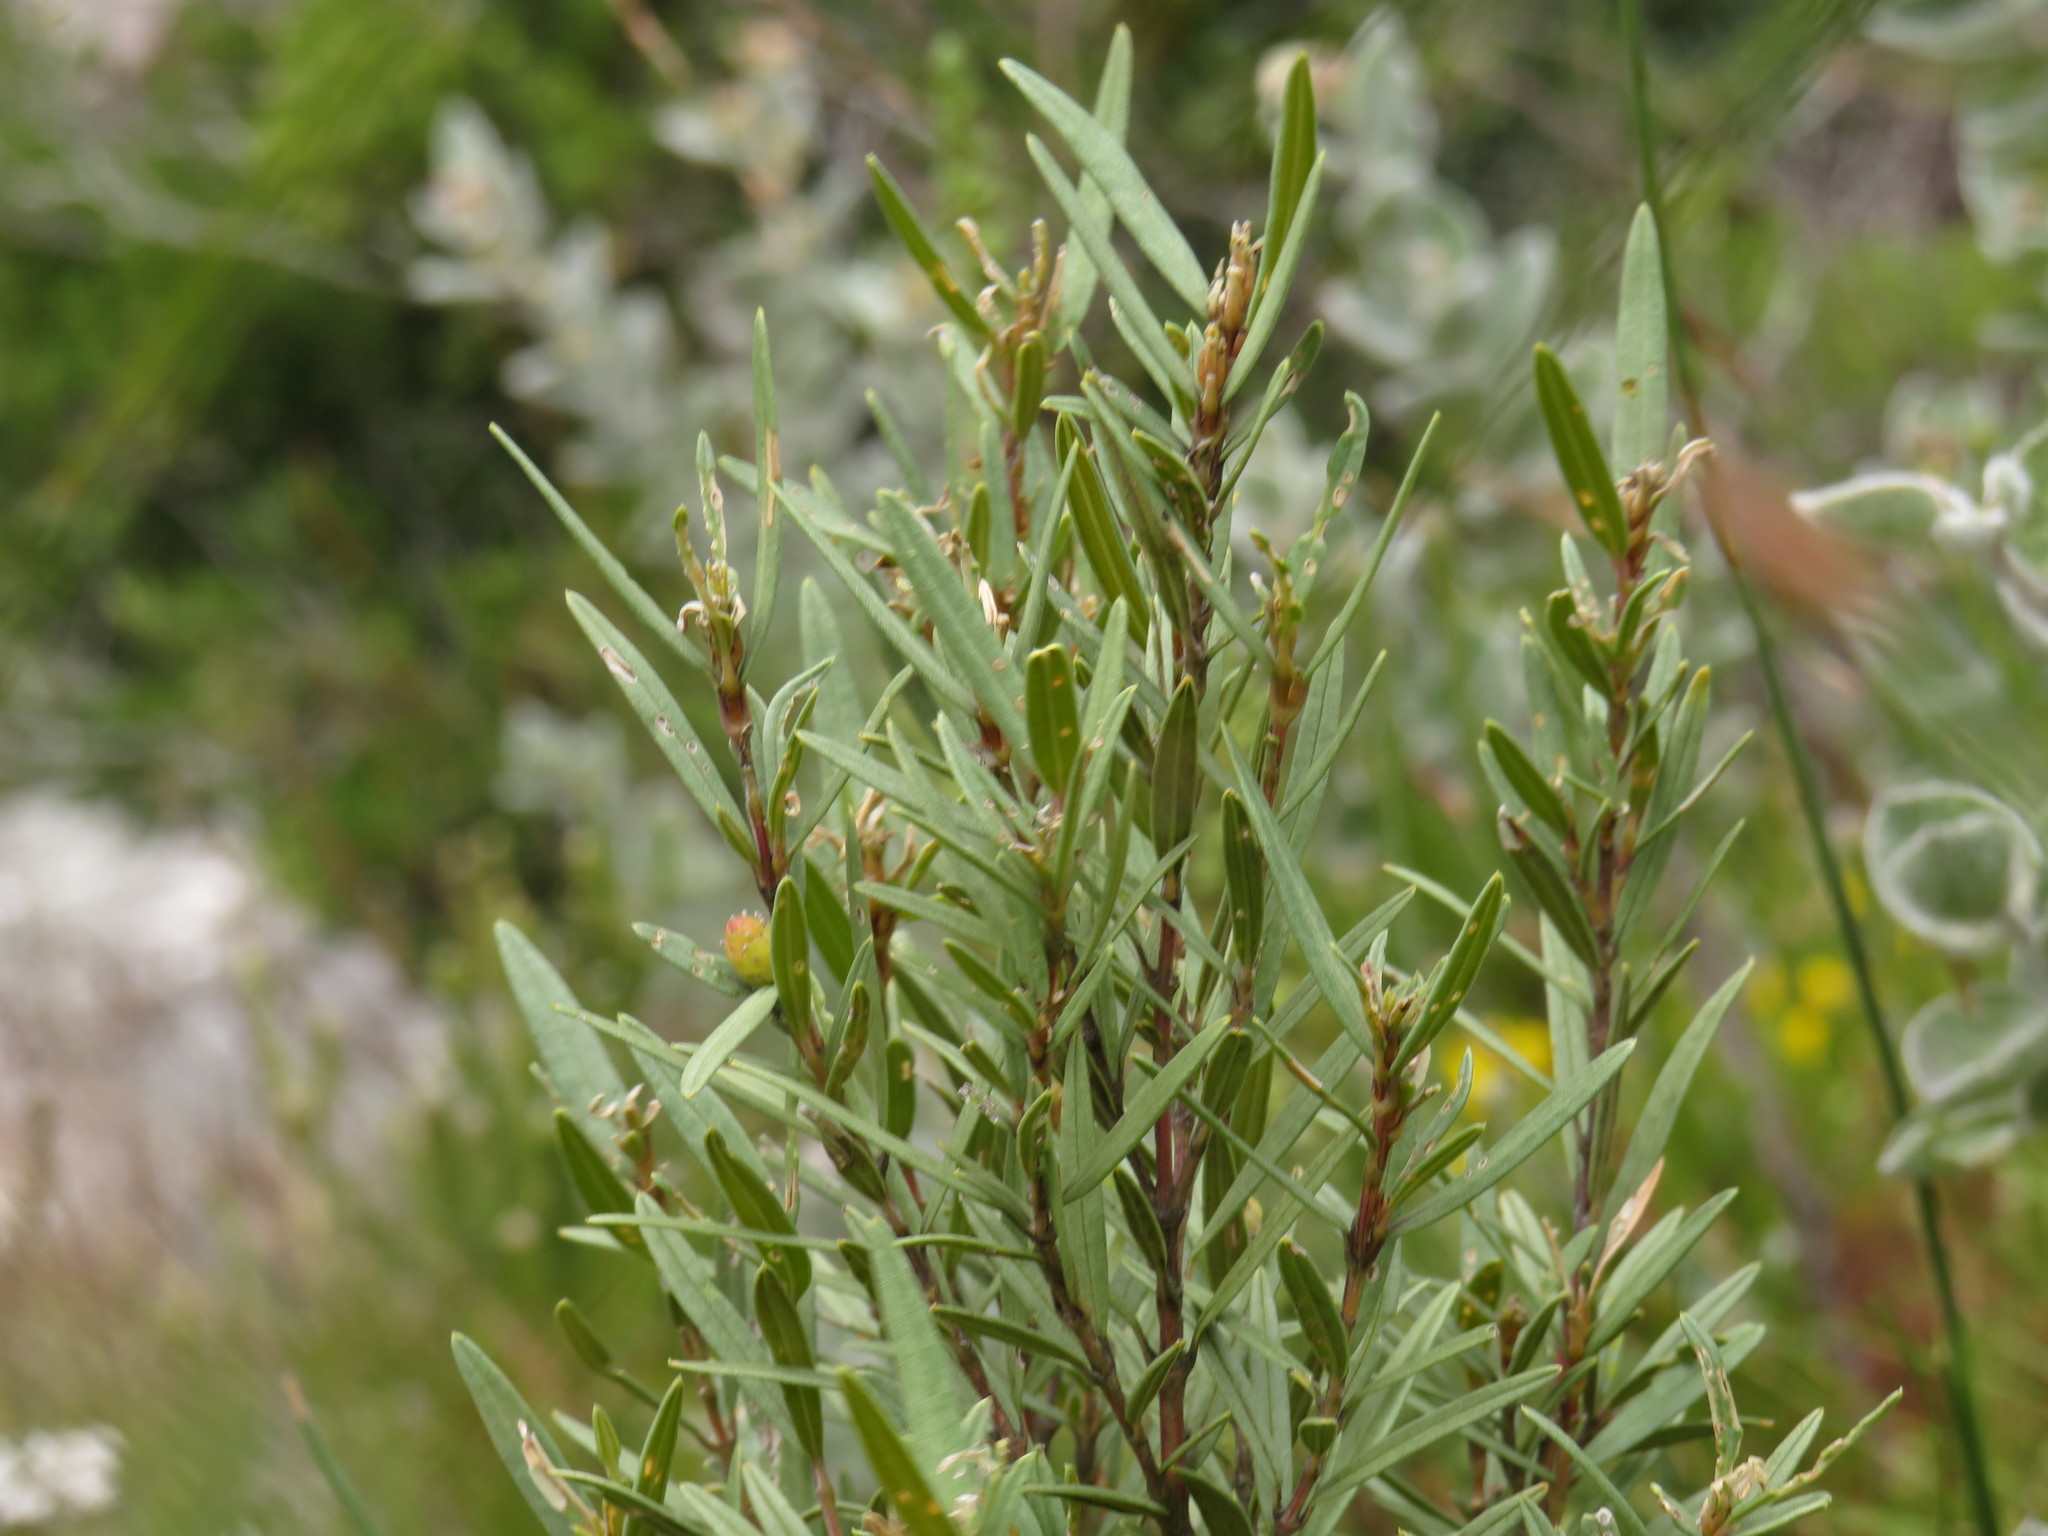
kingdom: Plantae
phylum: Tracheophyta
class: Magnoliopsida
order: Cornales
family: Grubbiaceae
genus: Grubbia
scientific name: Grubbia tomentosa
